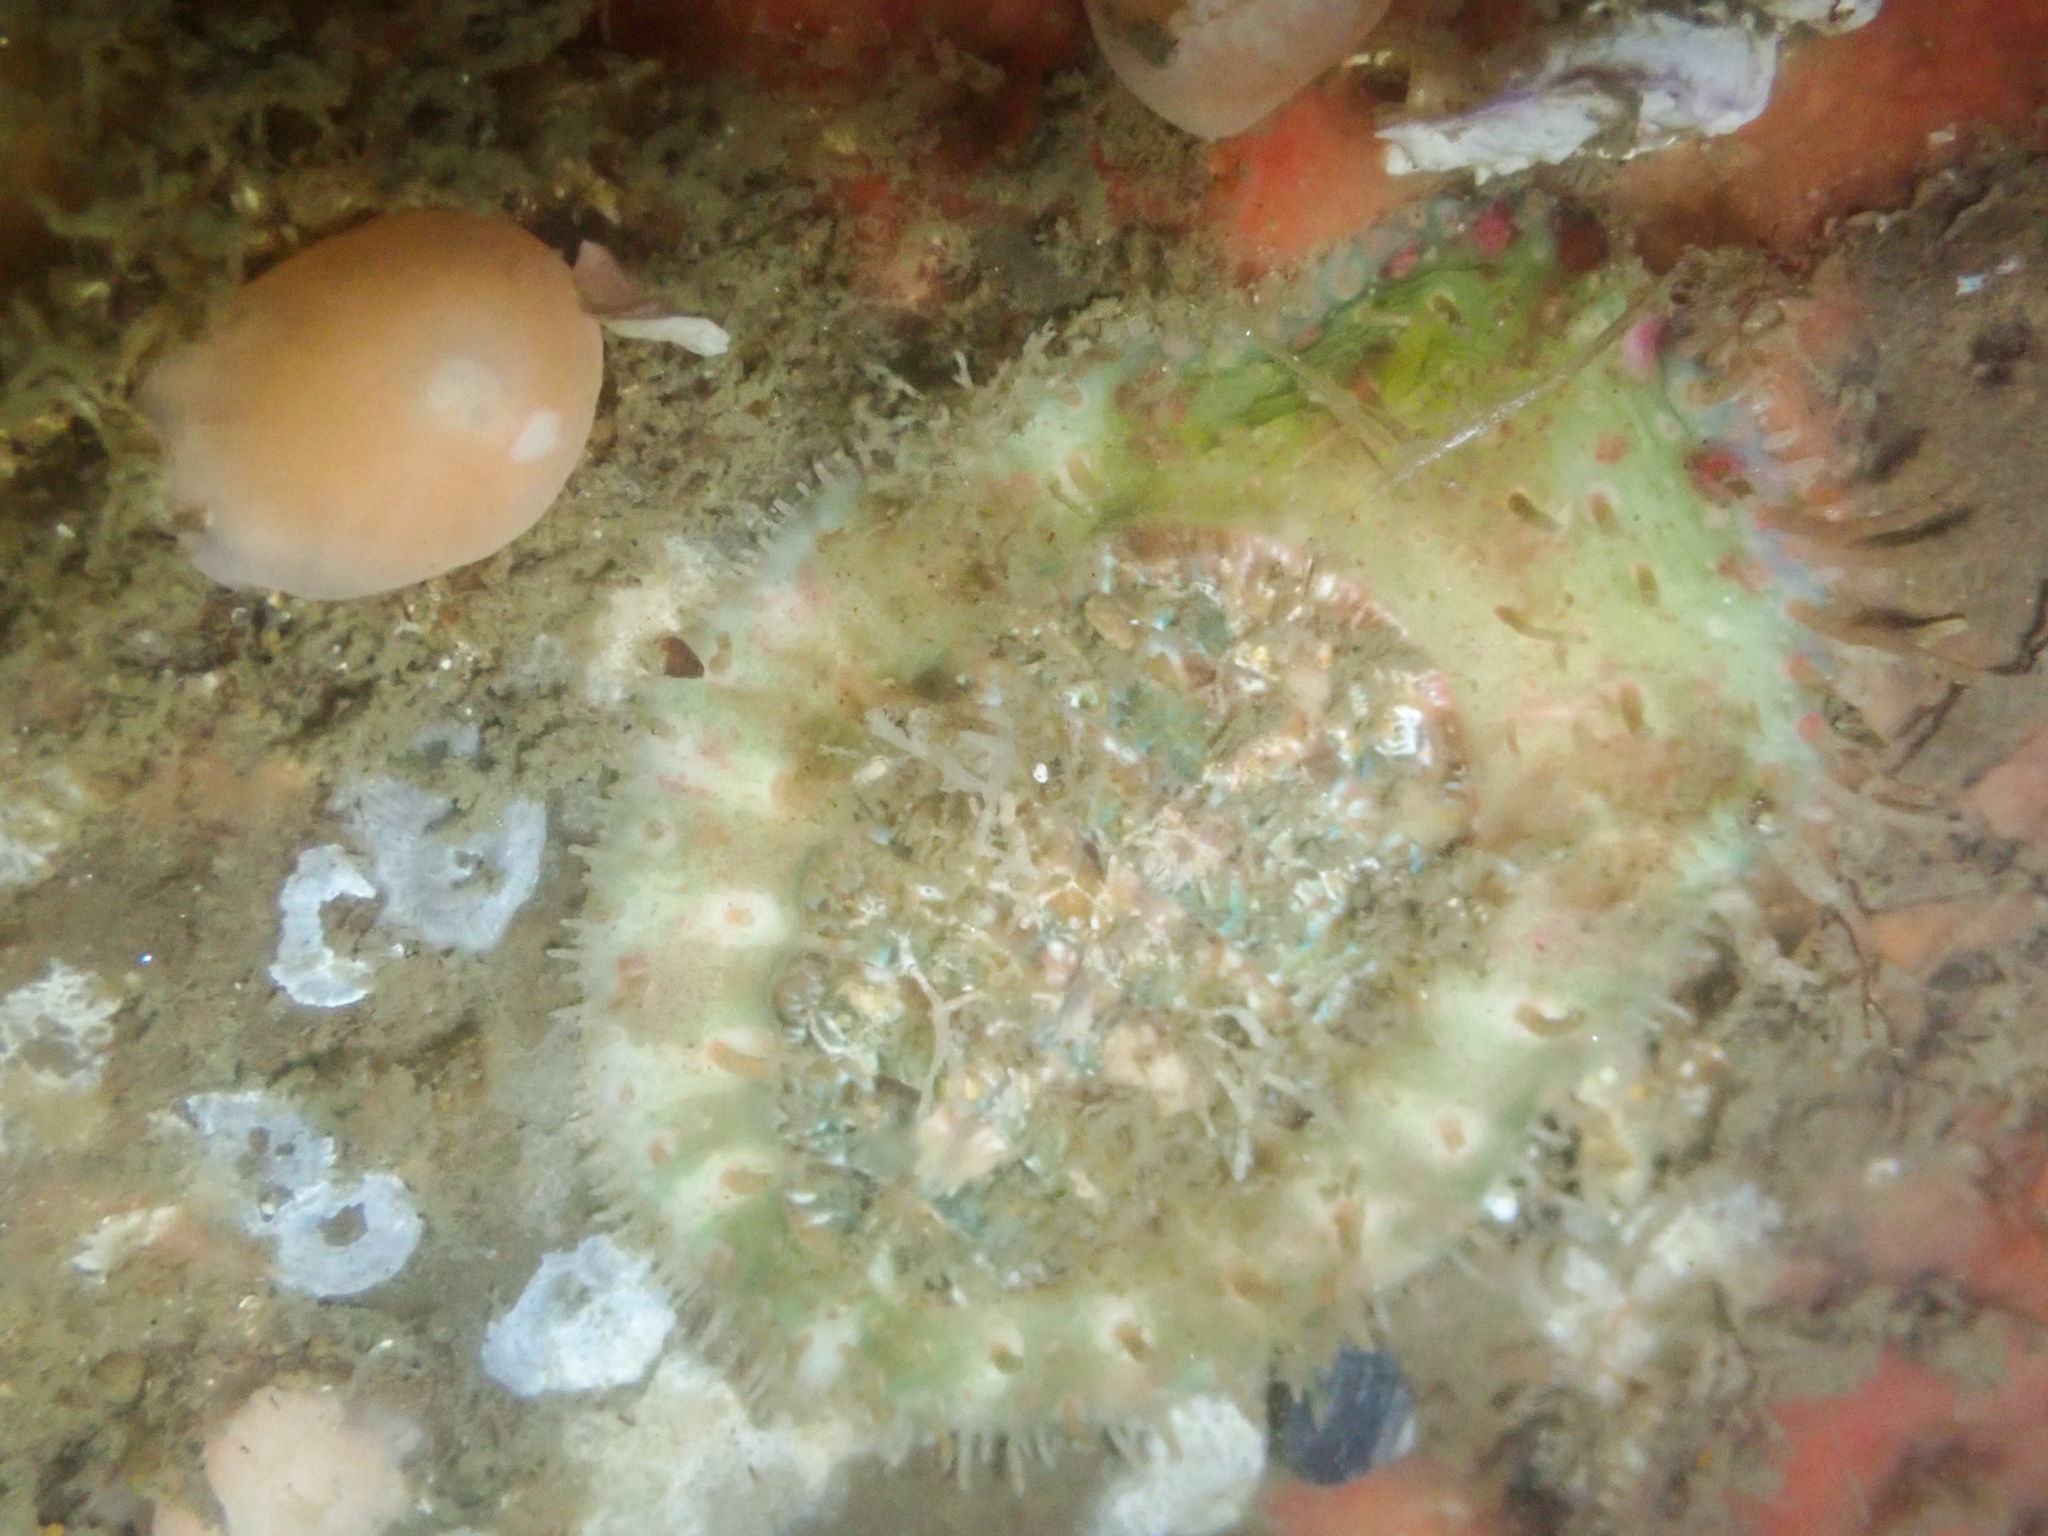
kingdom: Animalia
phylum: Mollusca
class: Polyplacophora
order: Chitonida
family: Mopaliidae
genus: Placiphorella
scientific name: Placiphorella velata
